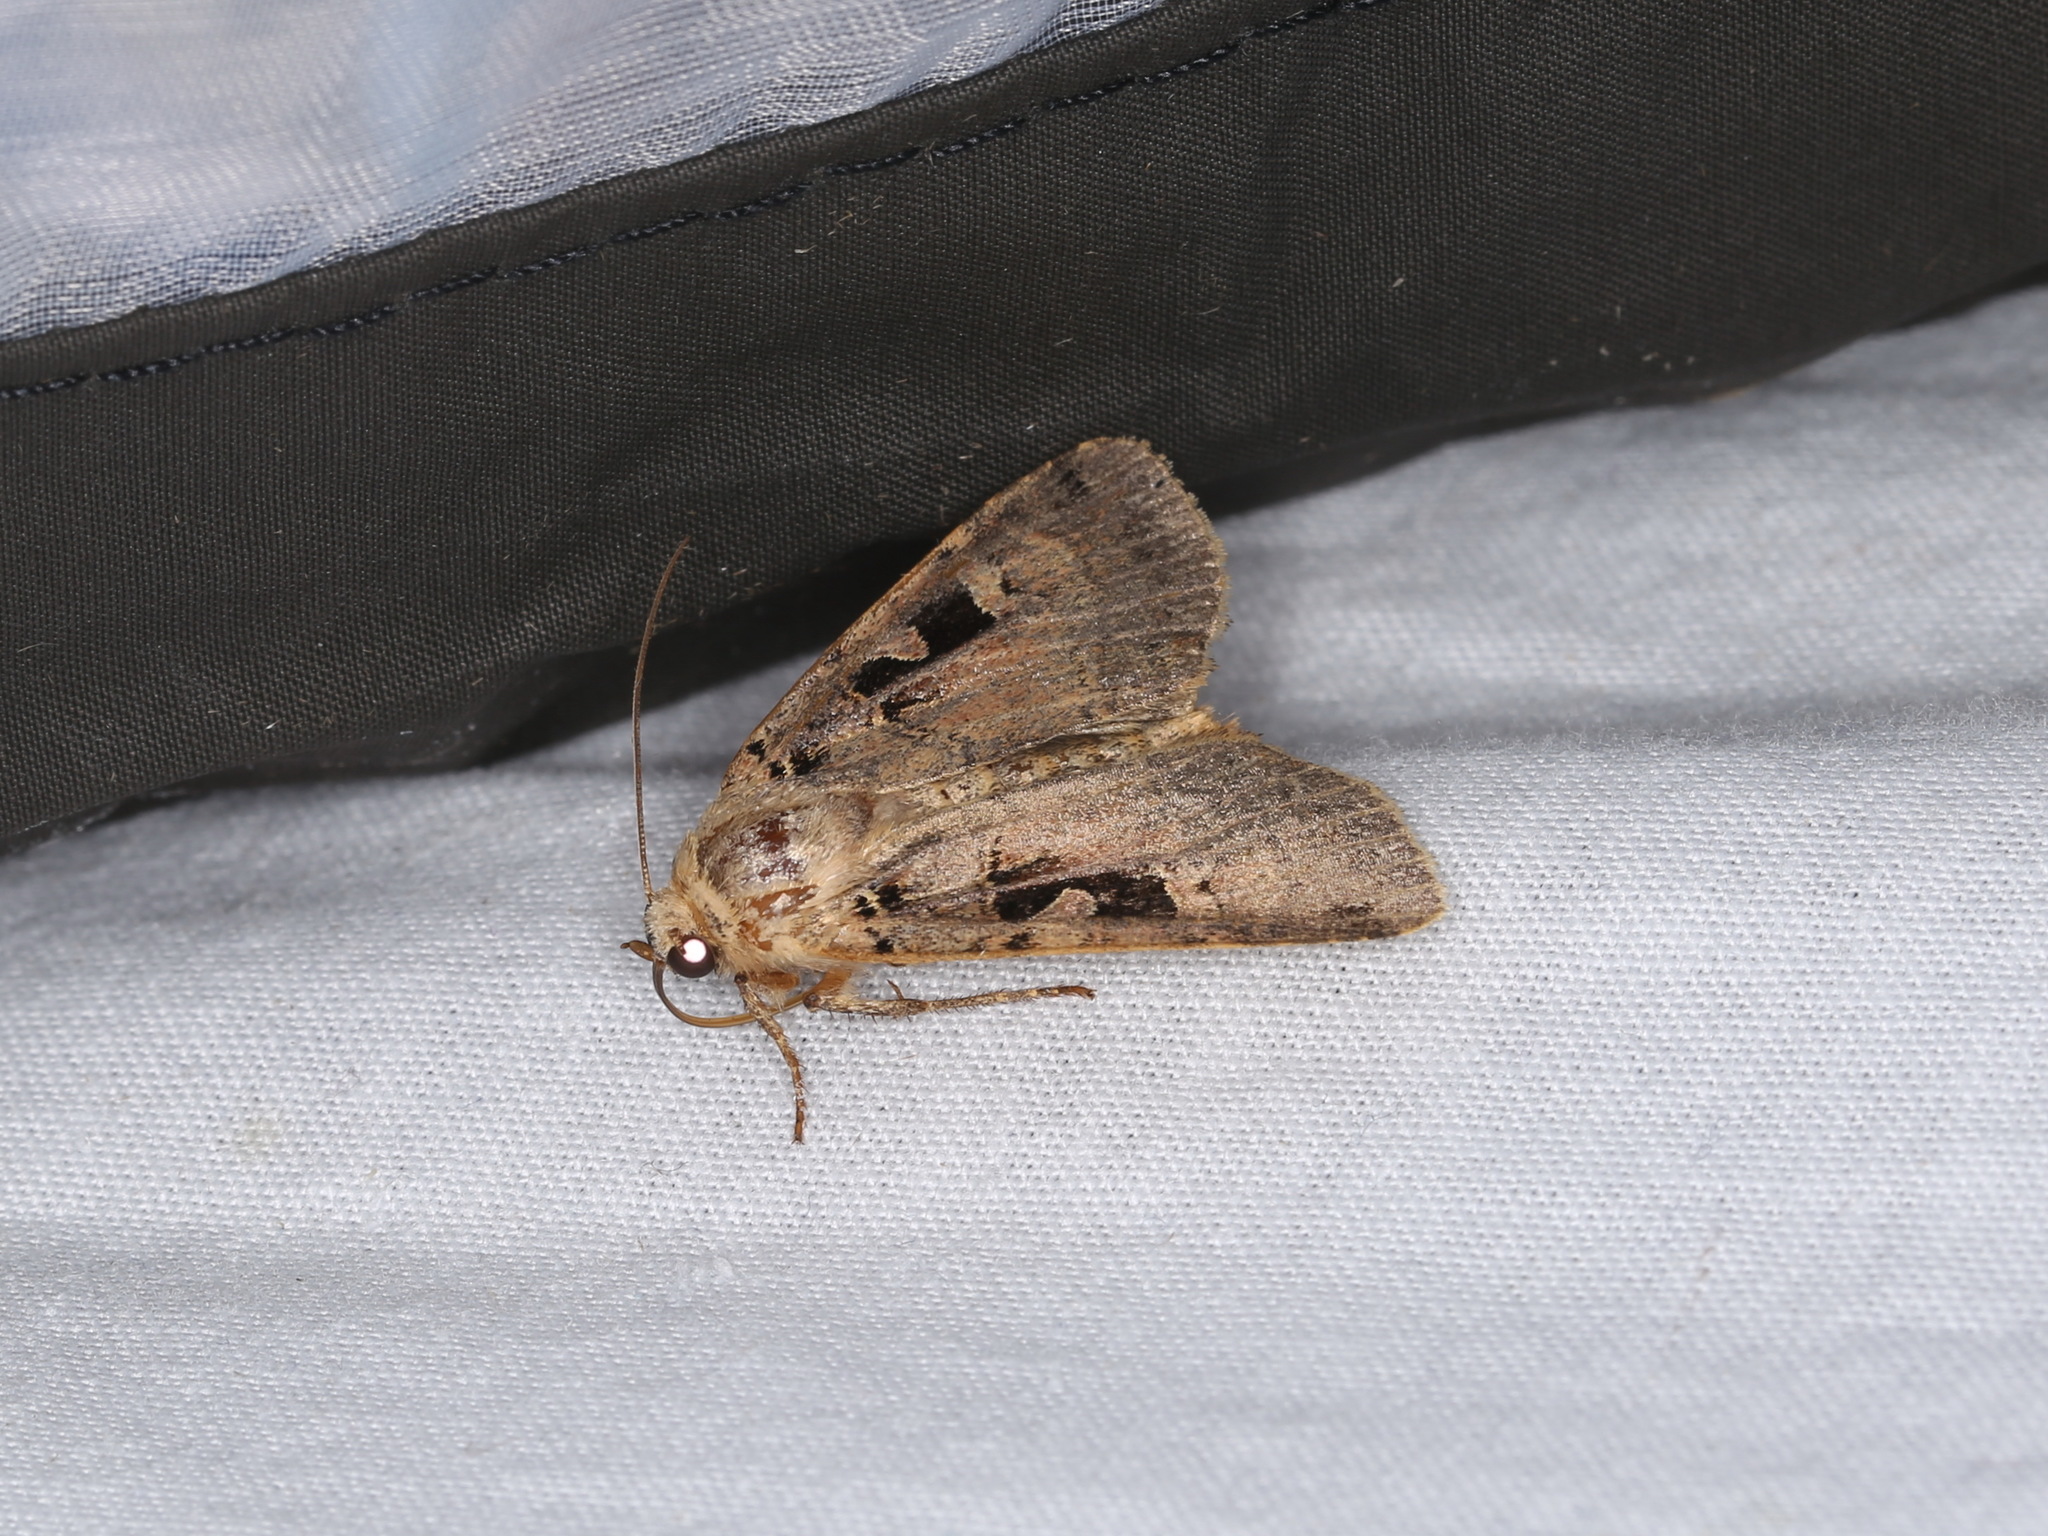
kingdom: Animalia
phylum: Arthropoda
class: Insecta
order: Lepidoptera
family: Noctuidae
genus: Xestia
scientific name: Xestia triangulum
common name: Double square-spot
